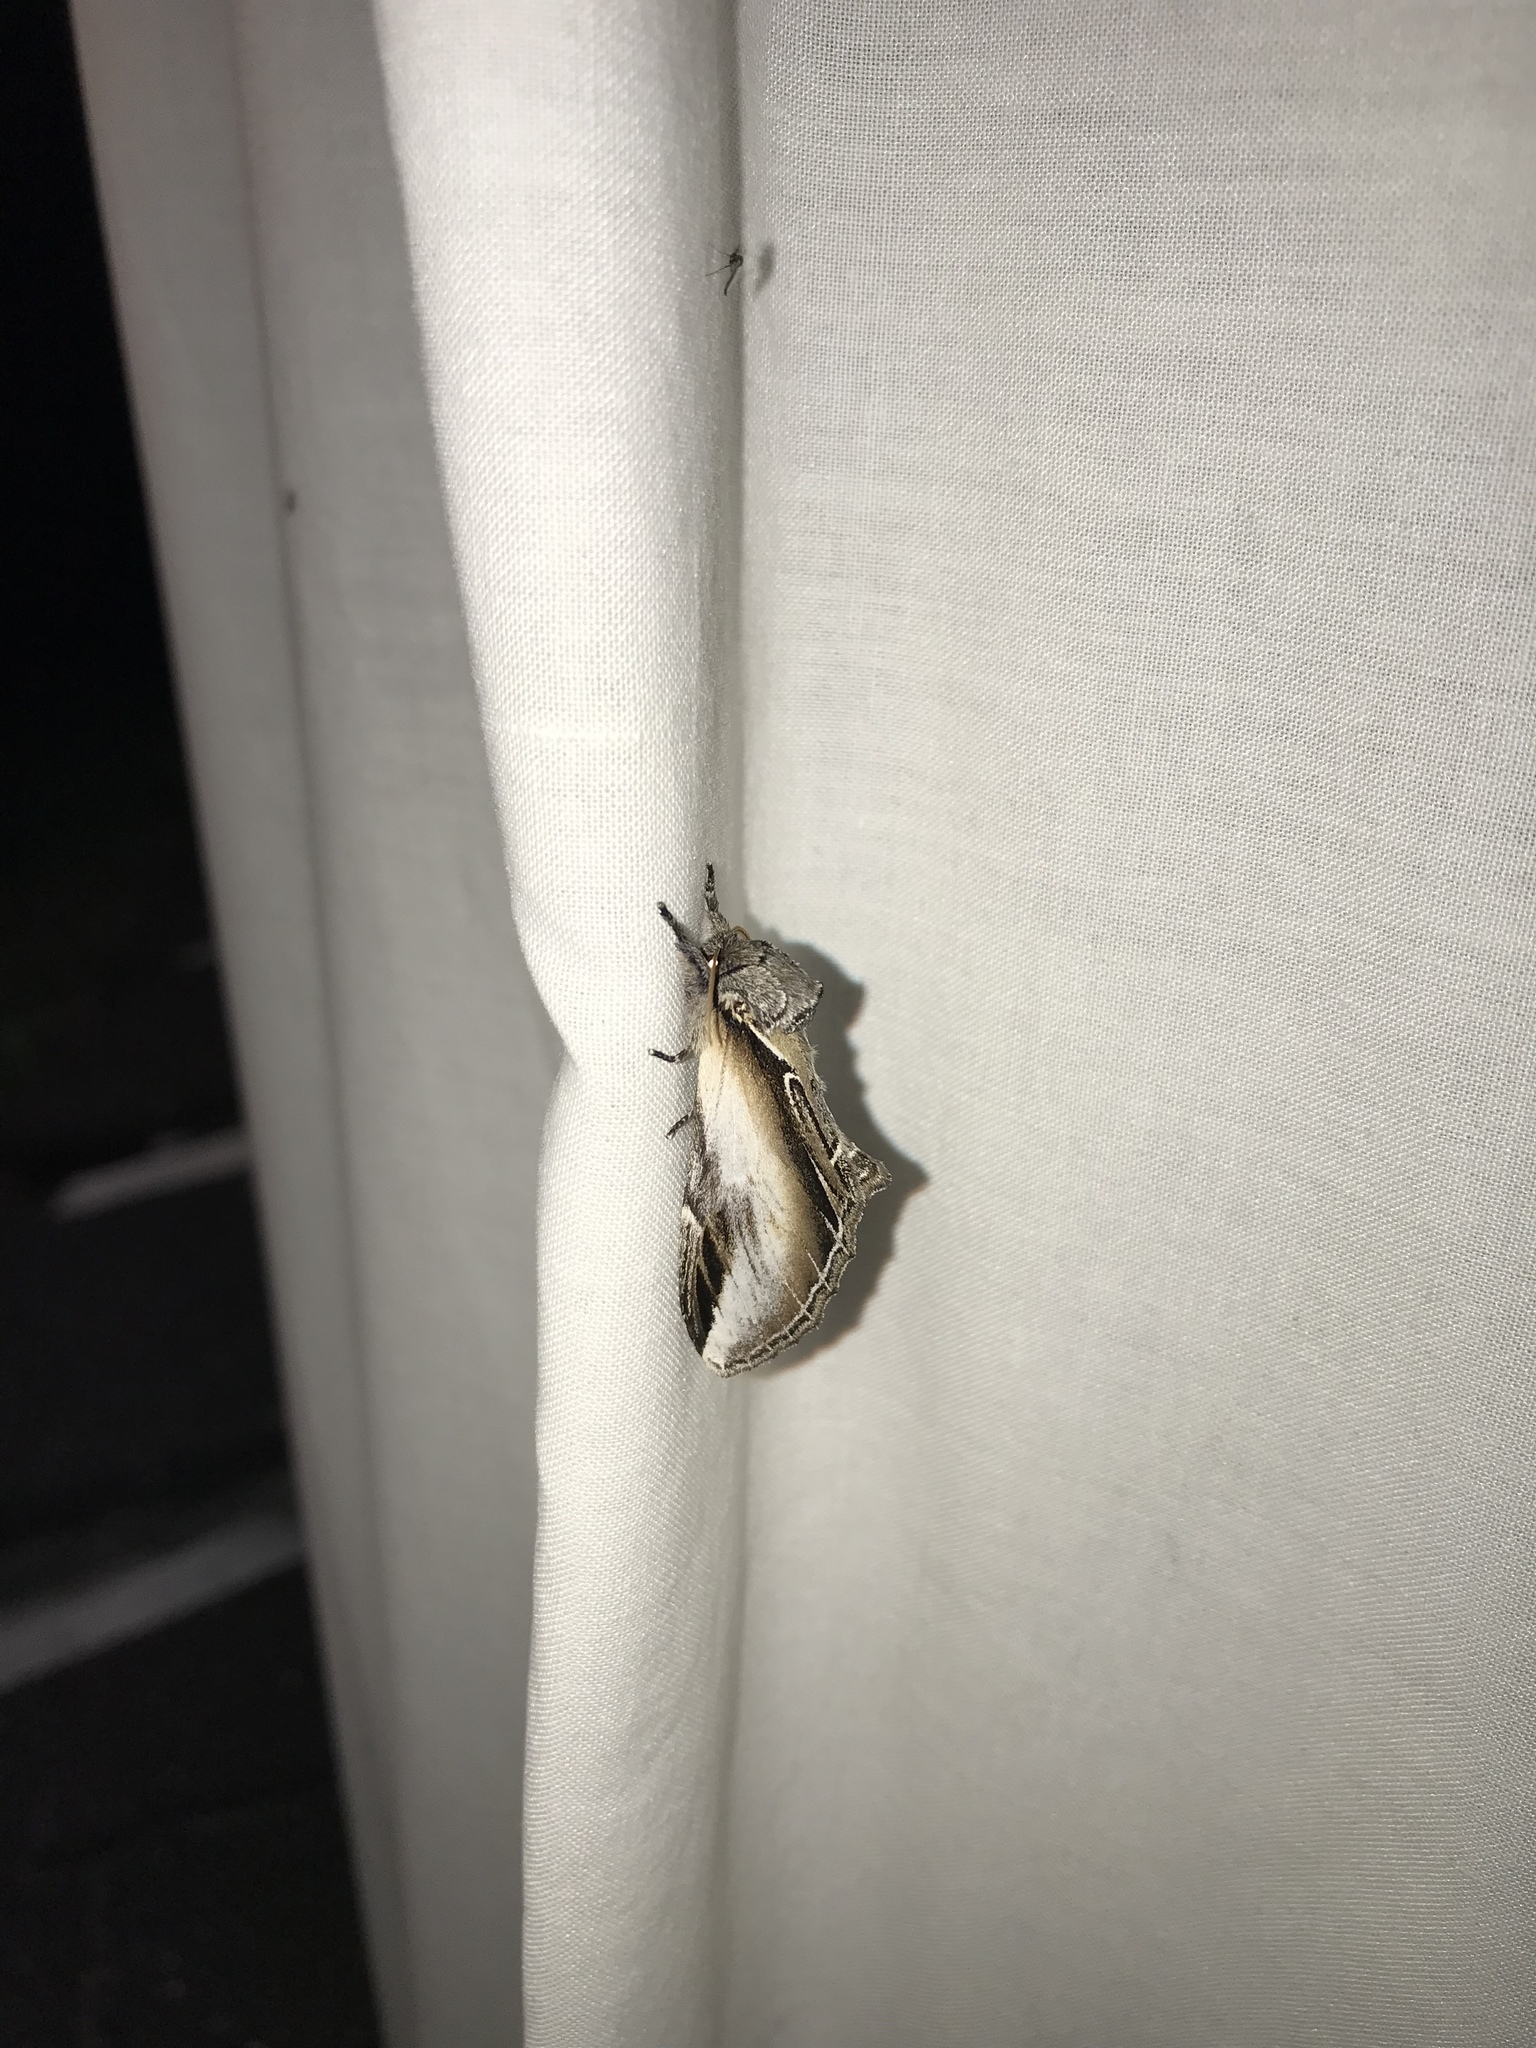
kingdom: Animalia
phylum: Arthropoda
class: Insecta
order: Lepidoptera
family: Notodontidae
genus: Pheosia
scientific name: Pheosia rimosa
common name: Black-rimmed prominent
